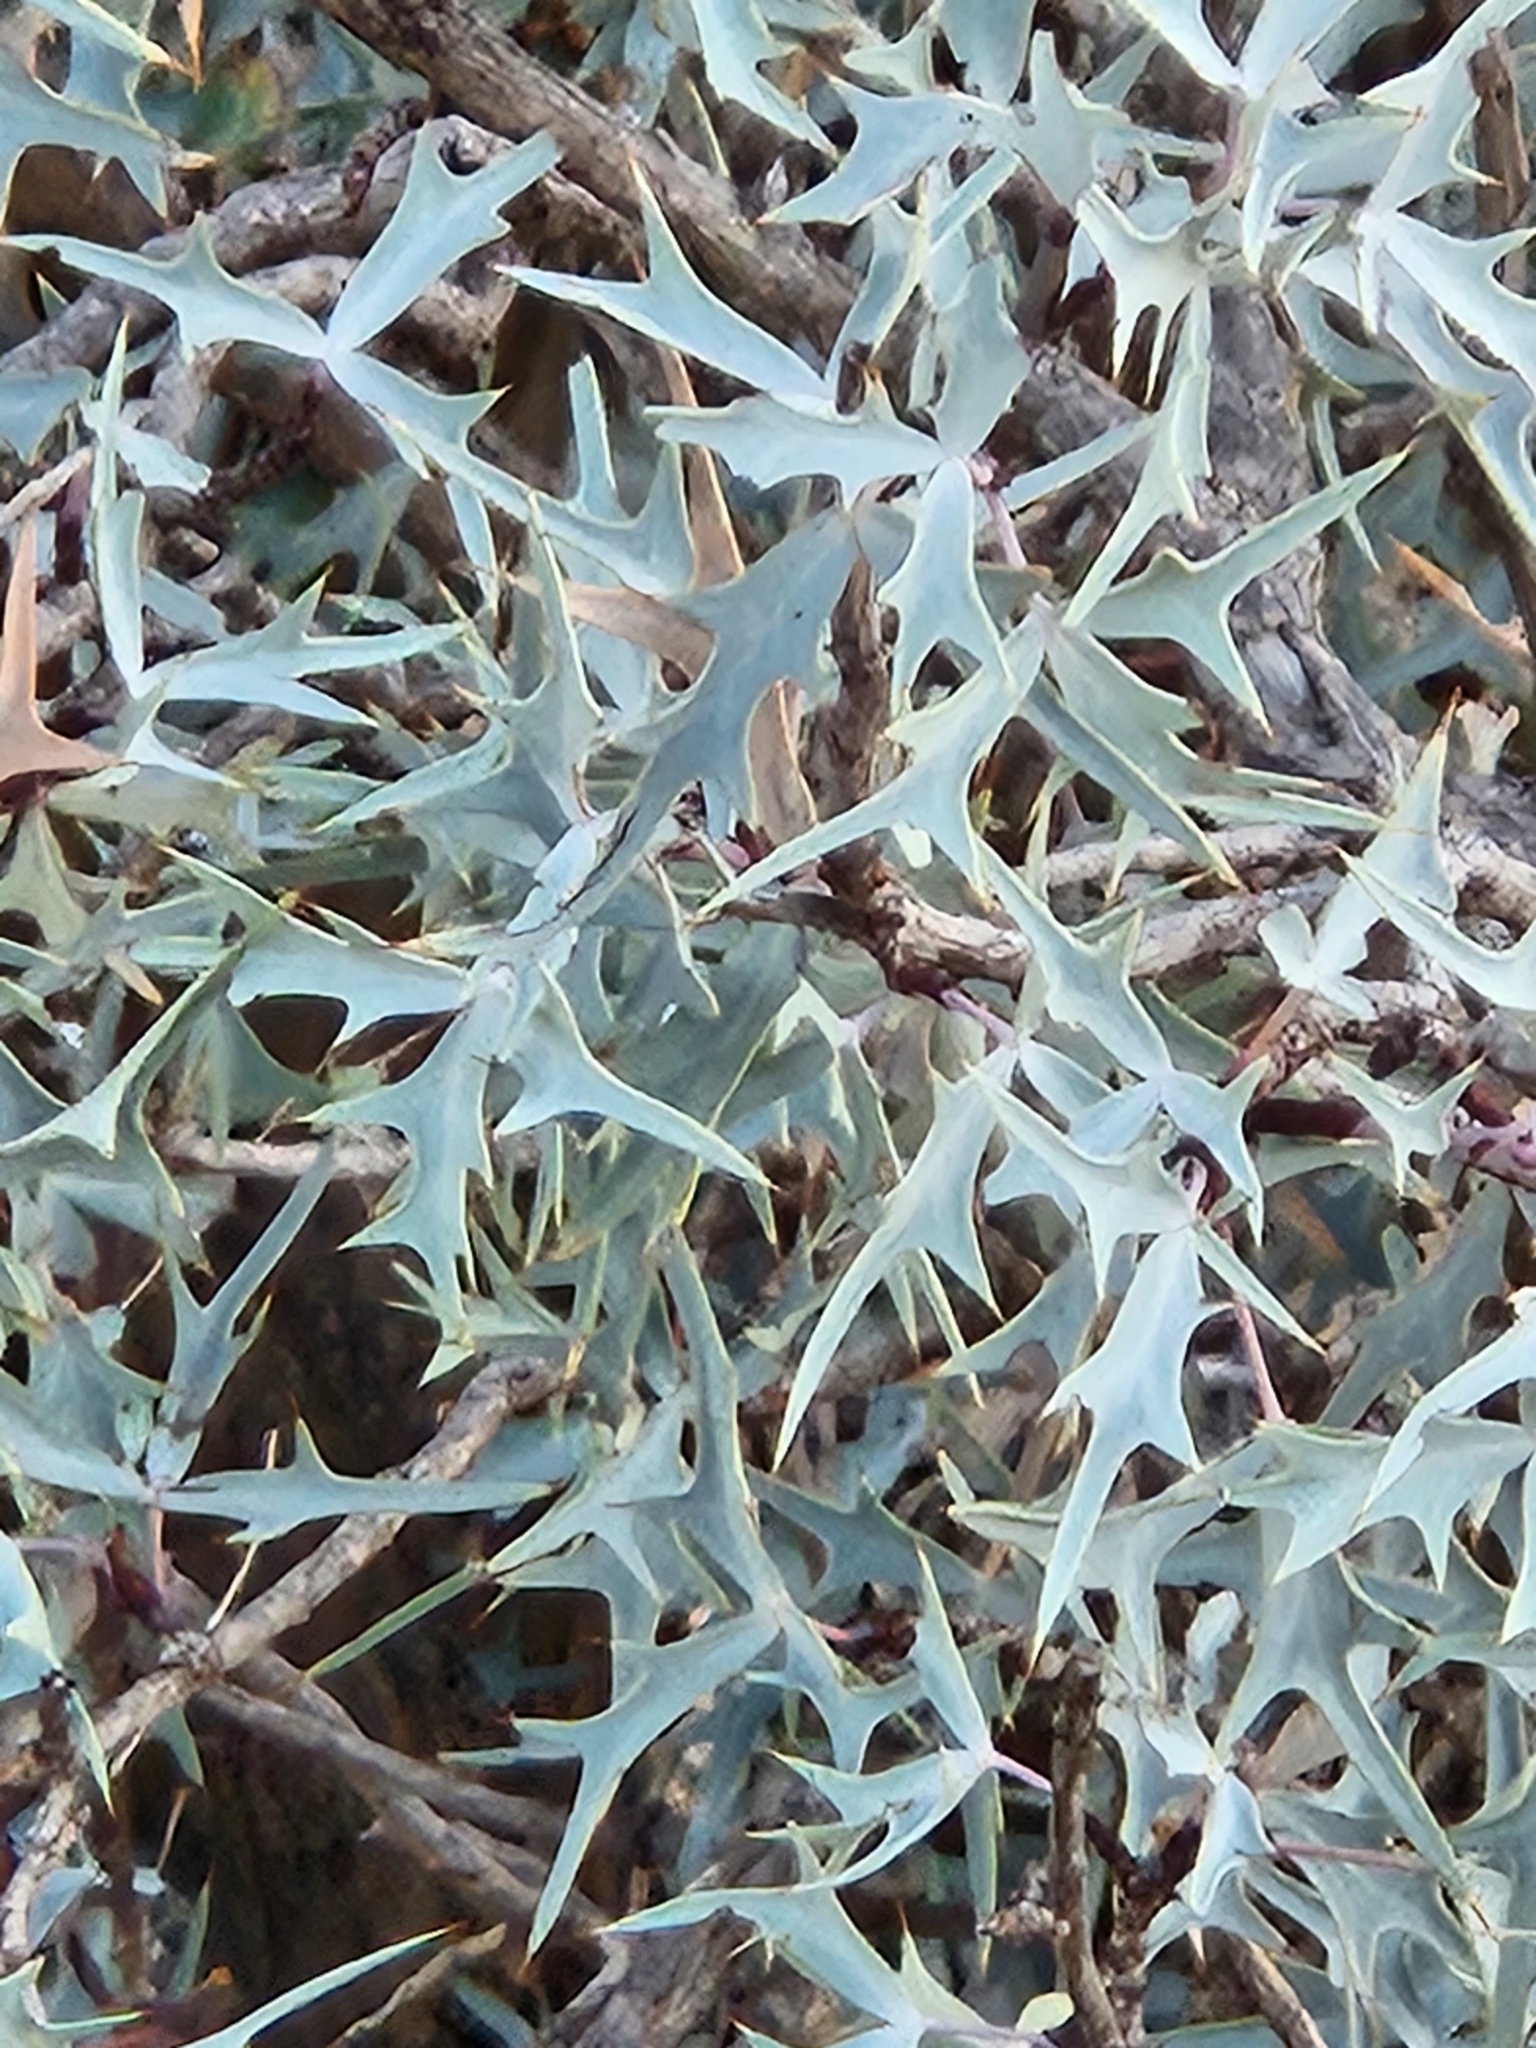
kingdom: Plantae
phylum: Tracheophyta
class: Magnoliopsida
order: Ranunculales
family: Berberidaceae
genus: Alloberberis
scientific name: Alloberberis trifoliolata
